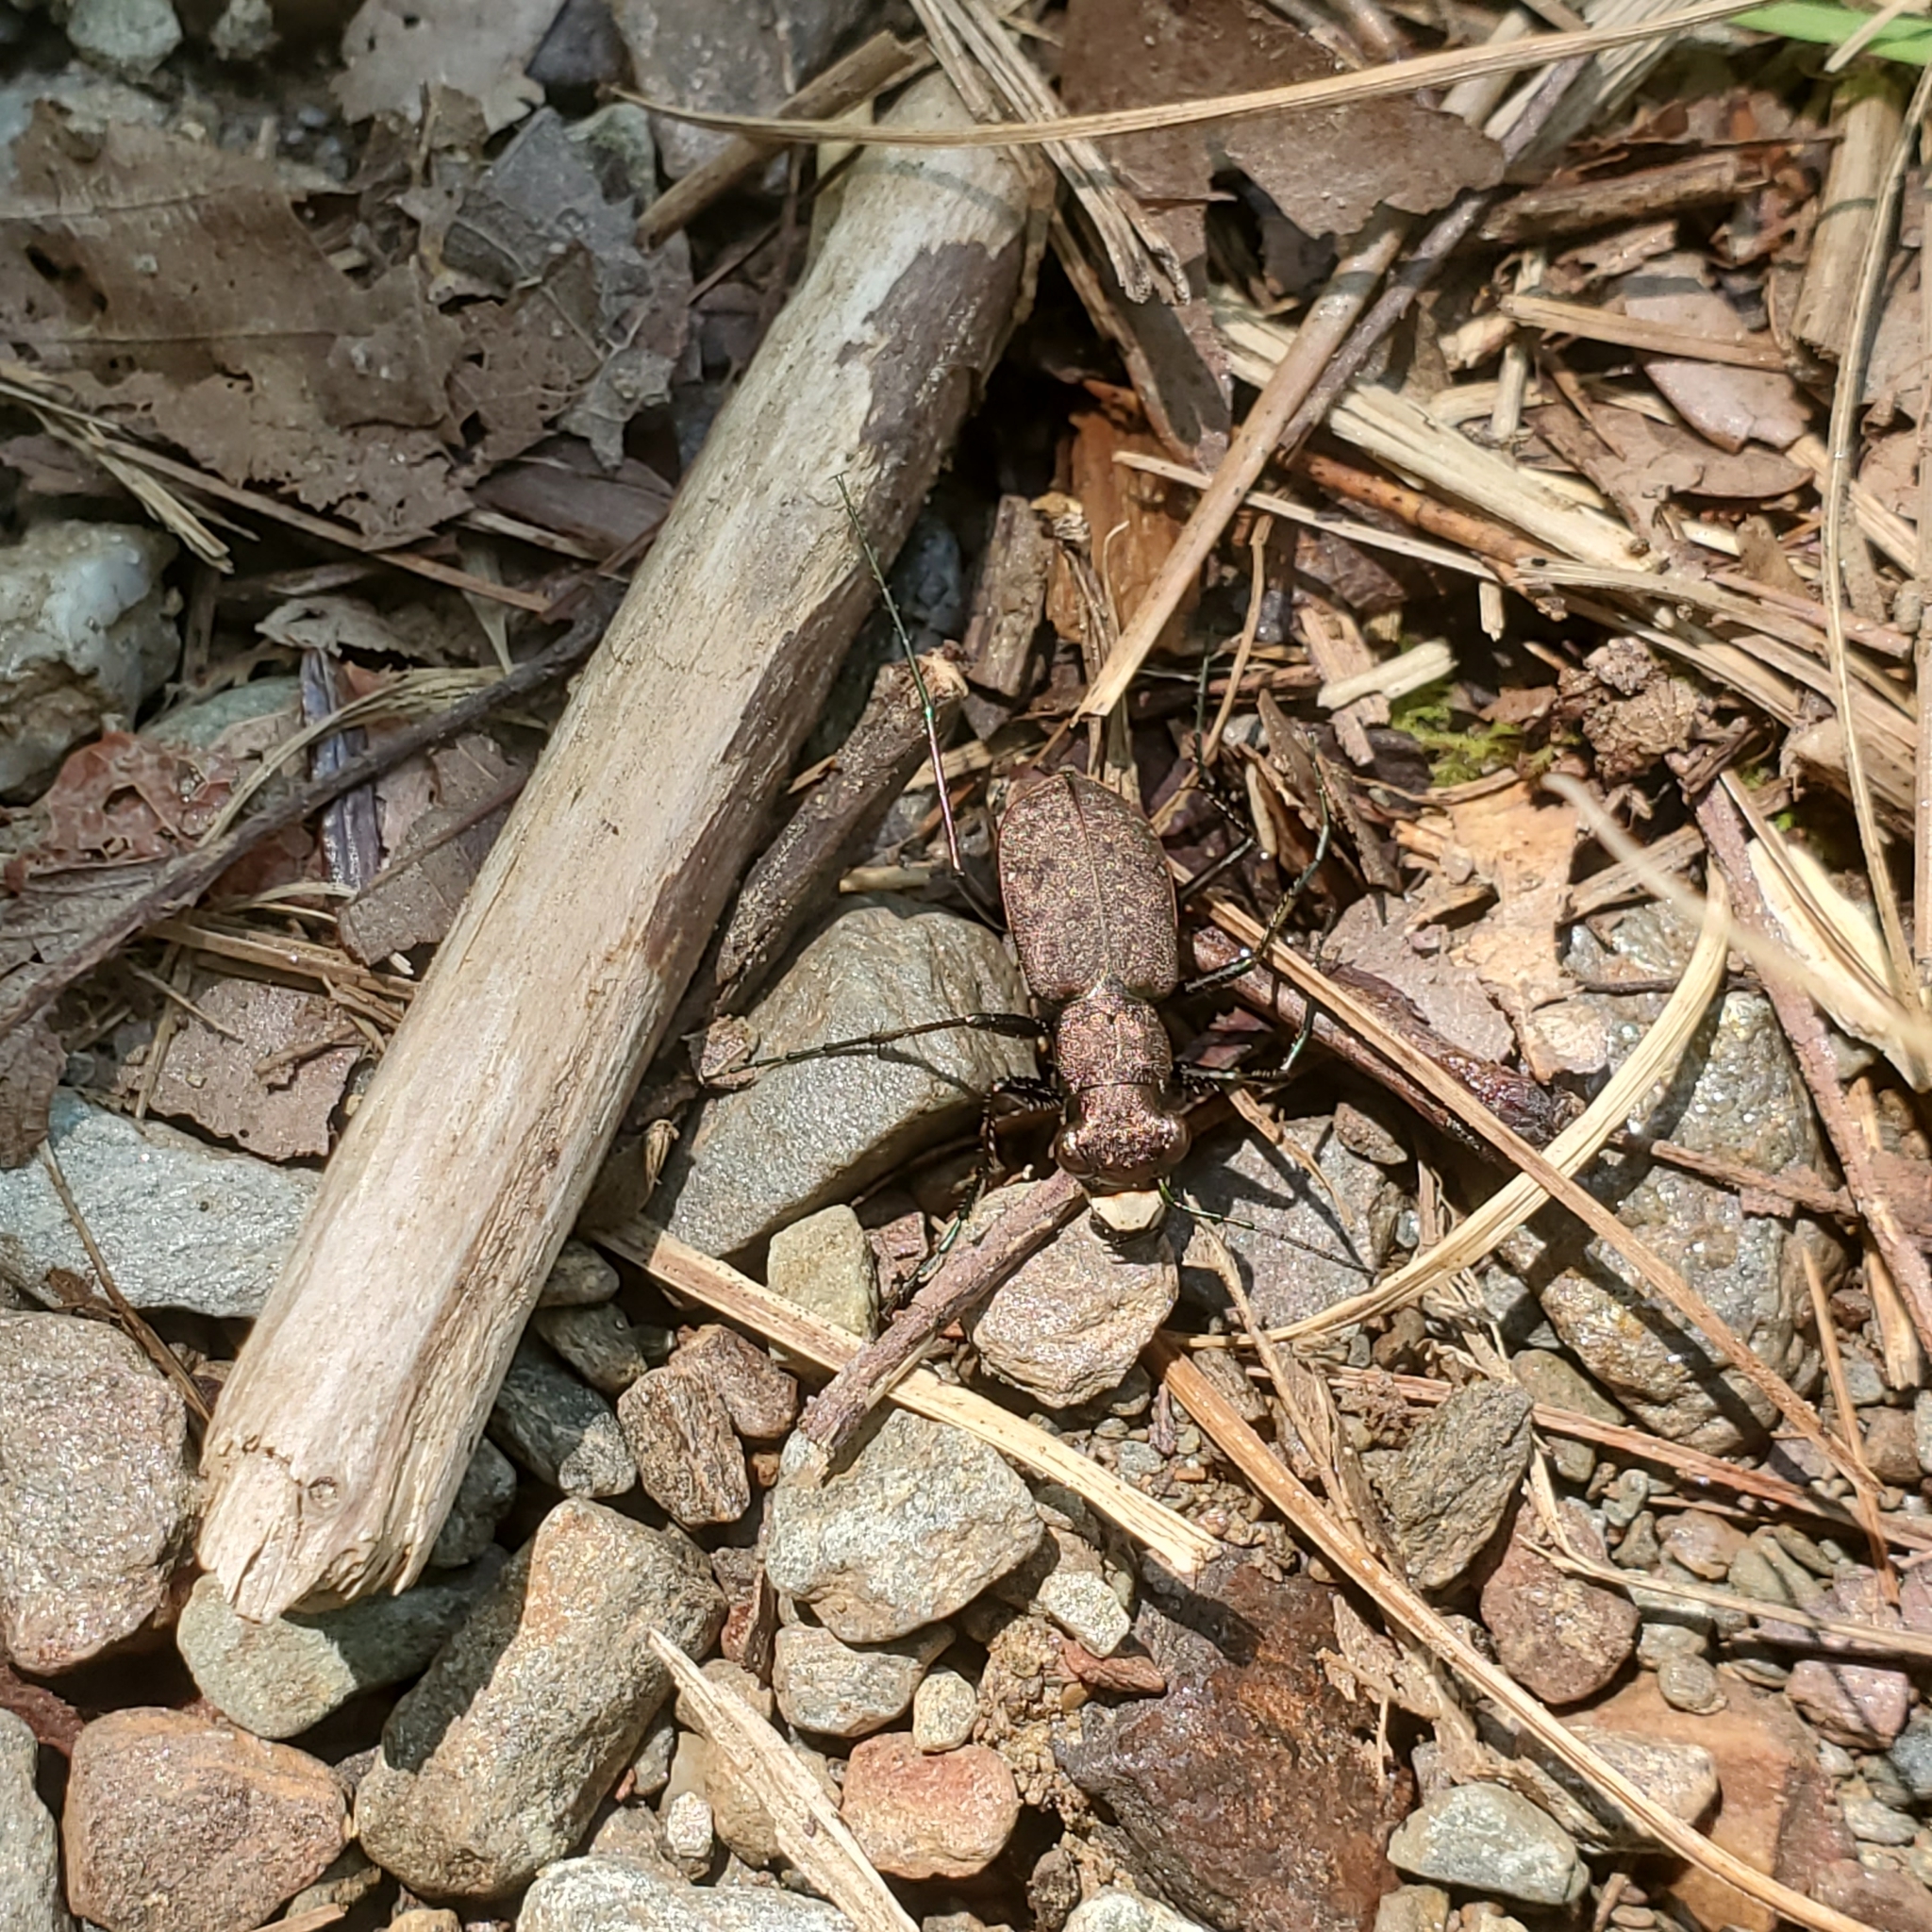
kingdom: Animalia
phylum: Arthropoda
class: Insecta
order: Coleoptera
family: Carabidae
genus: Cylindera
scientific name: Cylindera unipunctata
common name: One-spotted tiger beetle
